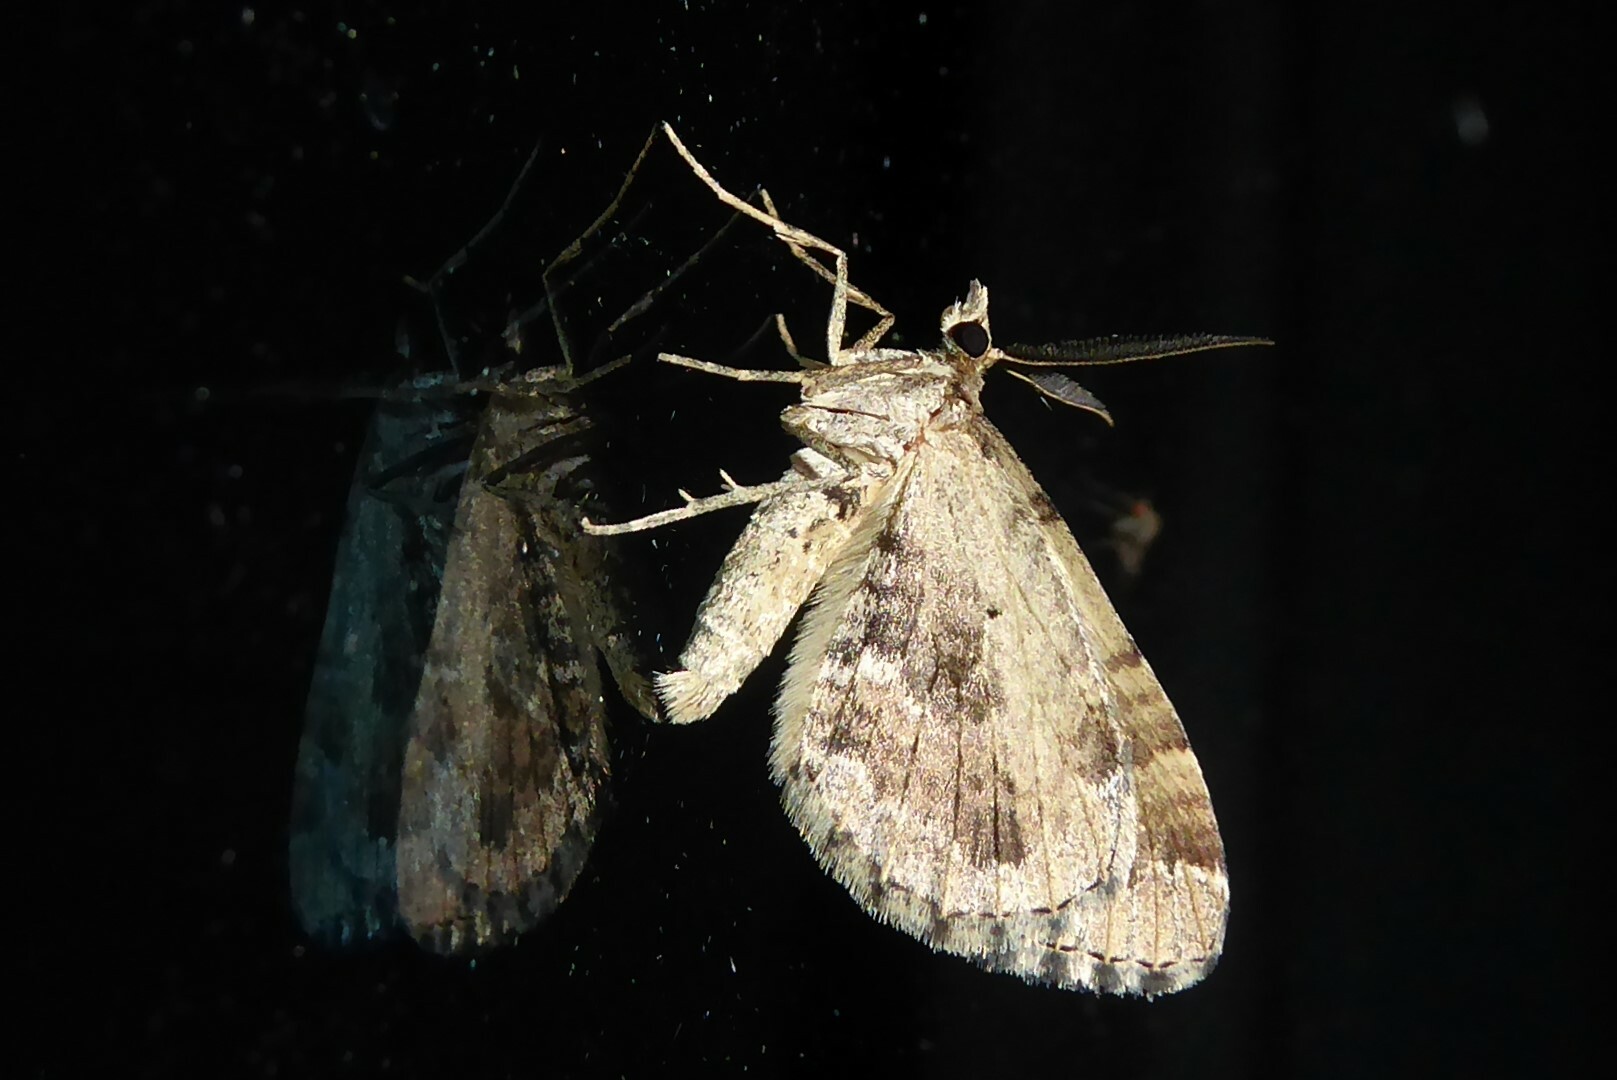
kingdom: Animalia
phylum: Arthropoda
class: Insecta
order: Lepidoptera
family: Geometridae
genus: Asaphodes
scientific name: Asaphodes aegrota
